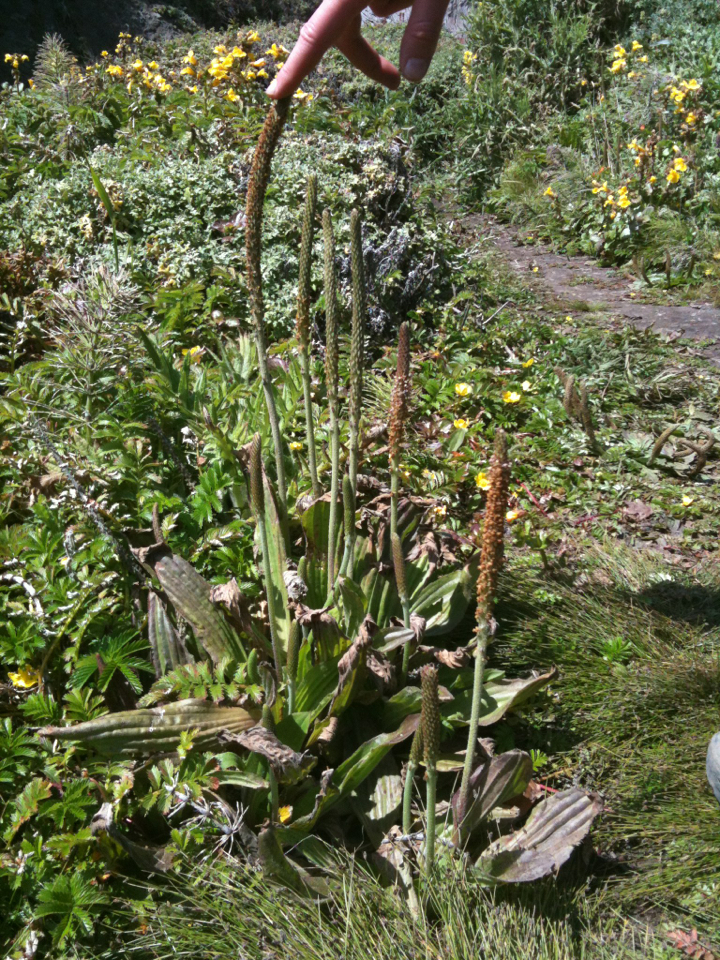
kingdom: Plantae
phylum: Tracheophyta
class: Magnoliopsida
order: Lamiales
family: Plantaginaceae
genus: Plantago
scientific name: Plantago subnuda
